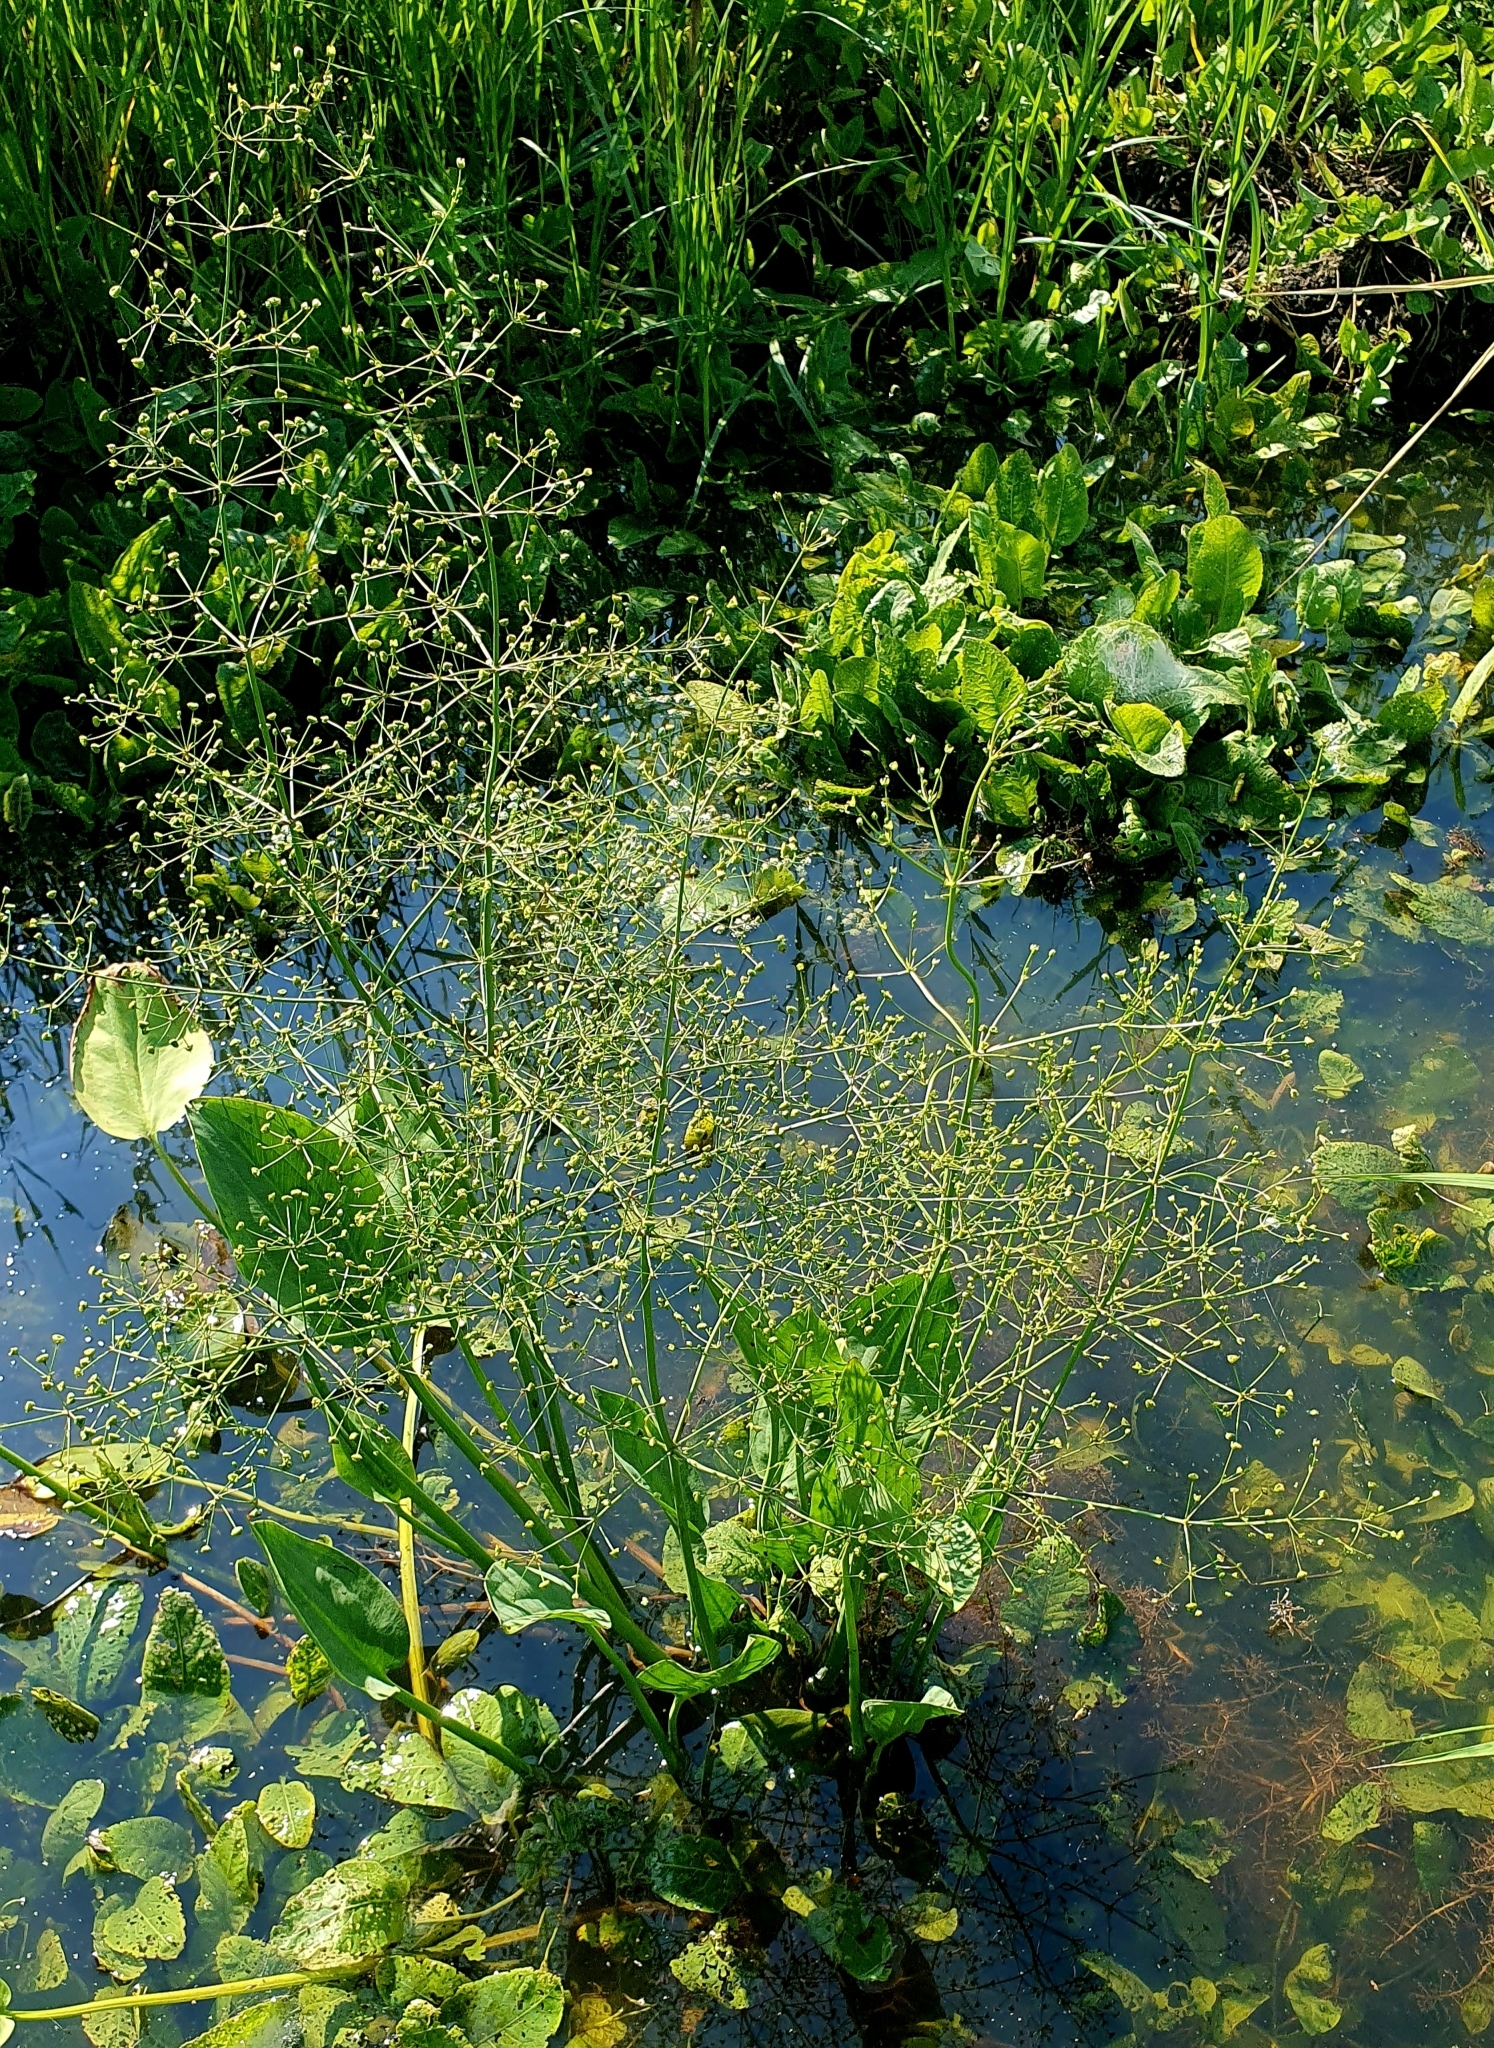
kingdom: Plantae
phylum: Tracheophyta
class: Liliopsida
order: Alismatales
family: Alismataceae
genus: Alisma
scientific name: Alisma plantago-aquatica
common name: Water-plantain
